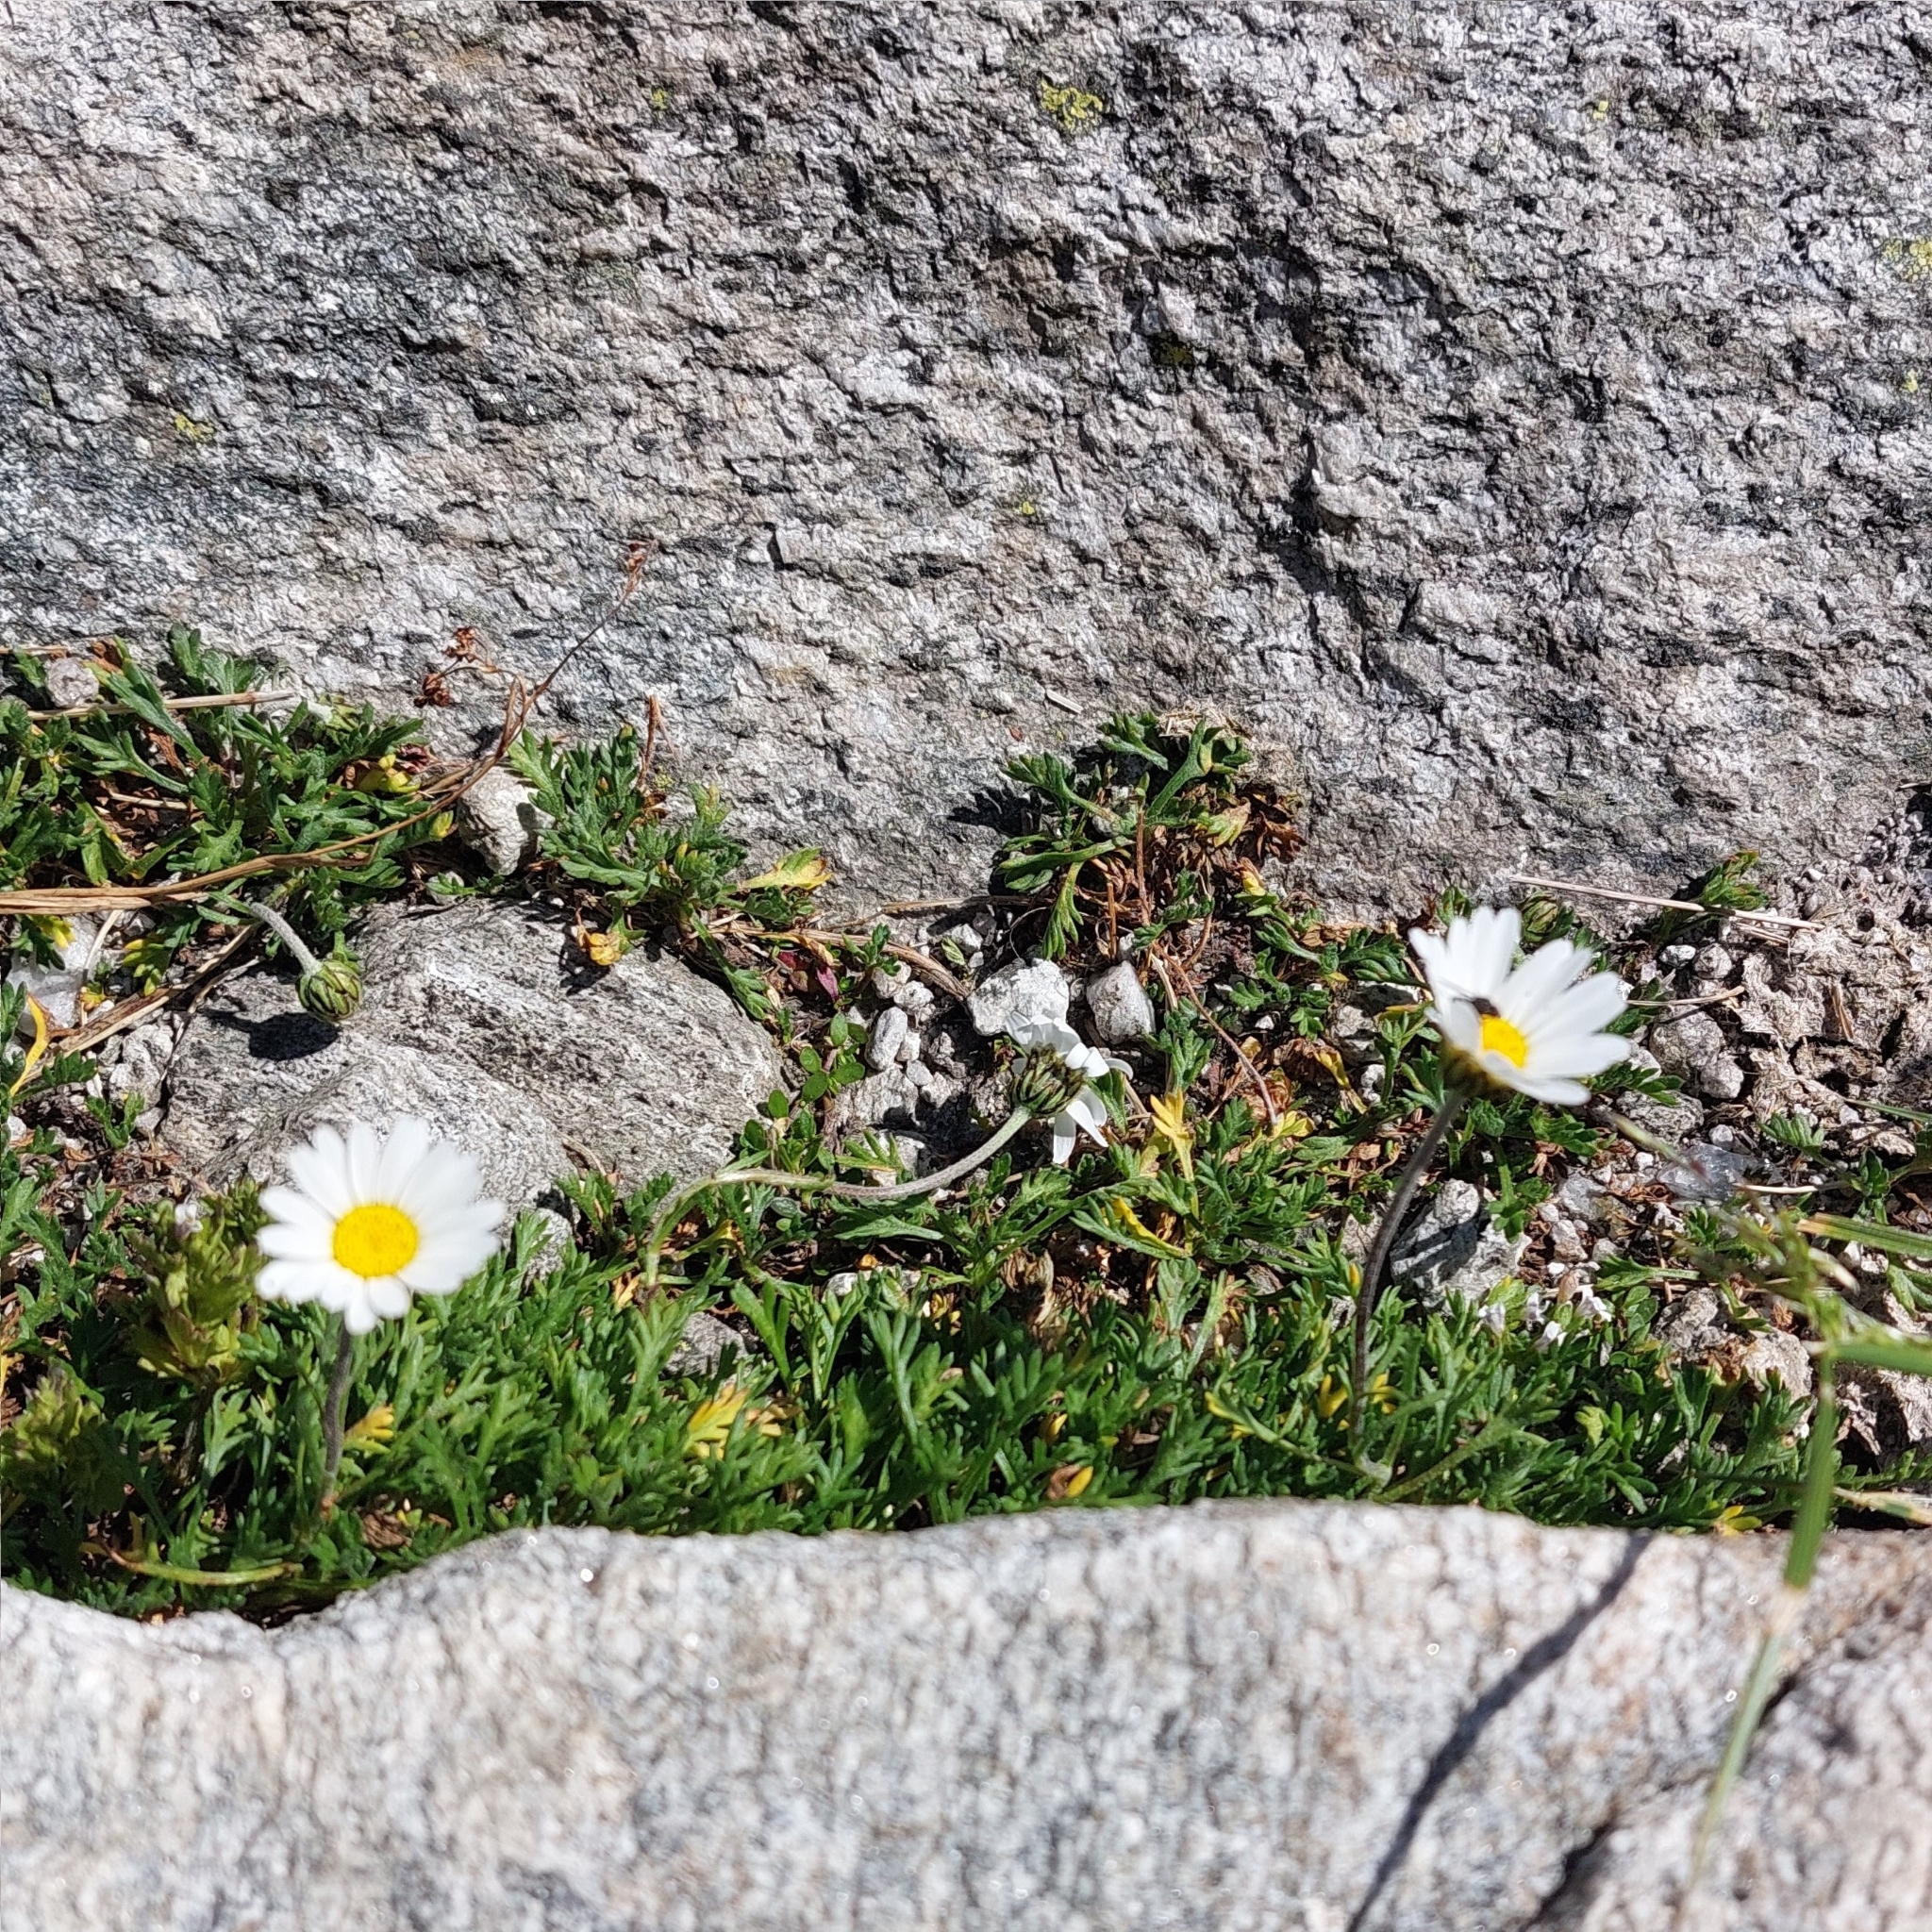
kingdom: Plantae
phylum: Tracheophyta
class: Magnoliopsida
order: Asterales
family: Asteraceae
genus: Leucanthemopsis
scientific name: Leucanthemopsis alpina
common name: Alpine moon daisy
